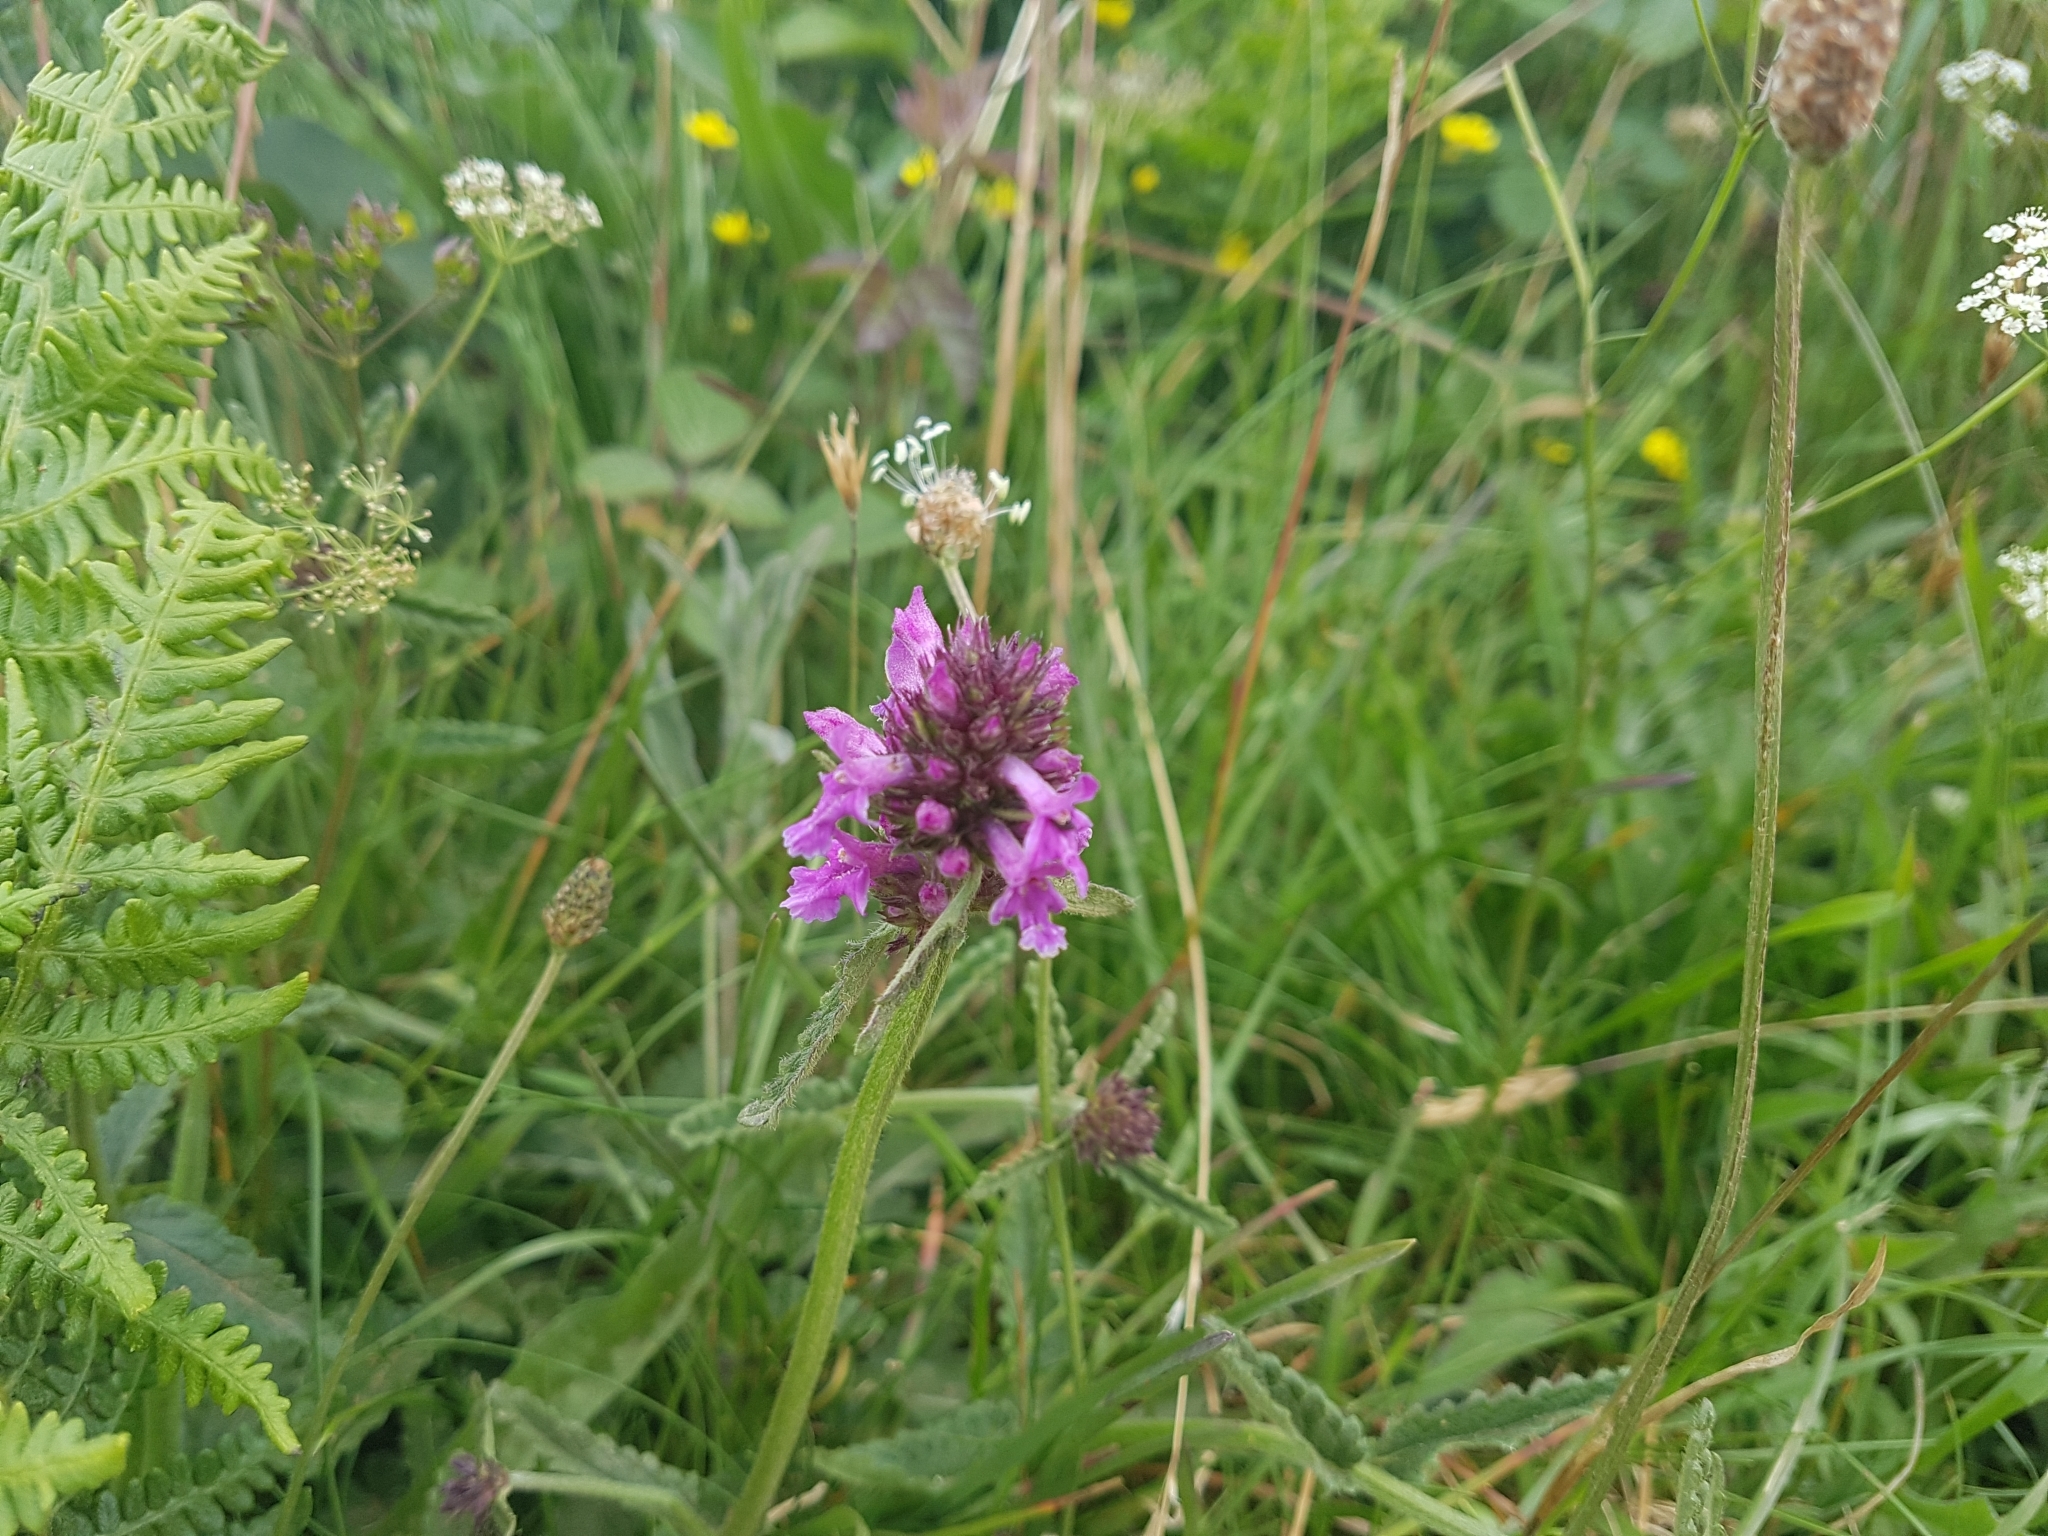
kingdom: Plantae
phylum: Tracheophyta
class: Magnoliopsida
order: Lamiales
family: Lamiaceae
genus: Betonica
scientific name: Betonica officinalis
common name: Bishop's-wort
